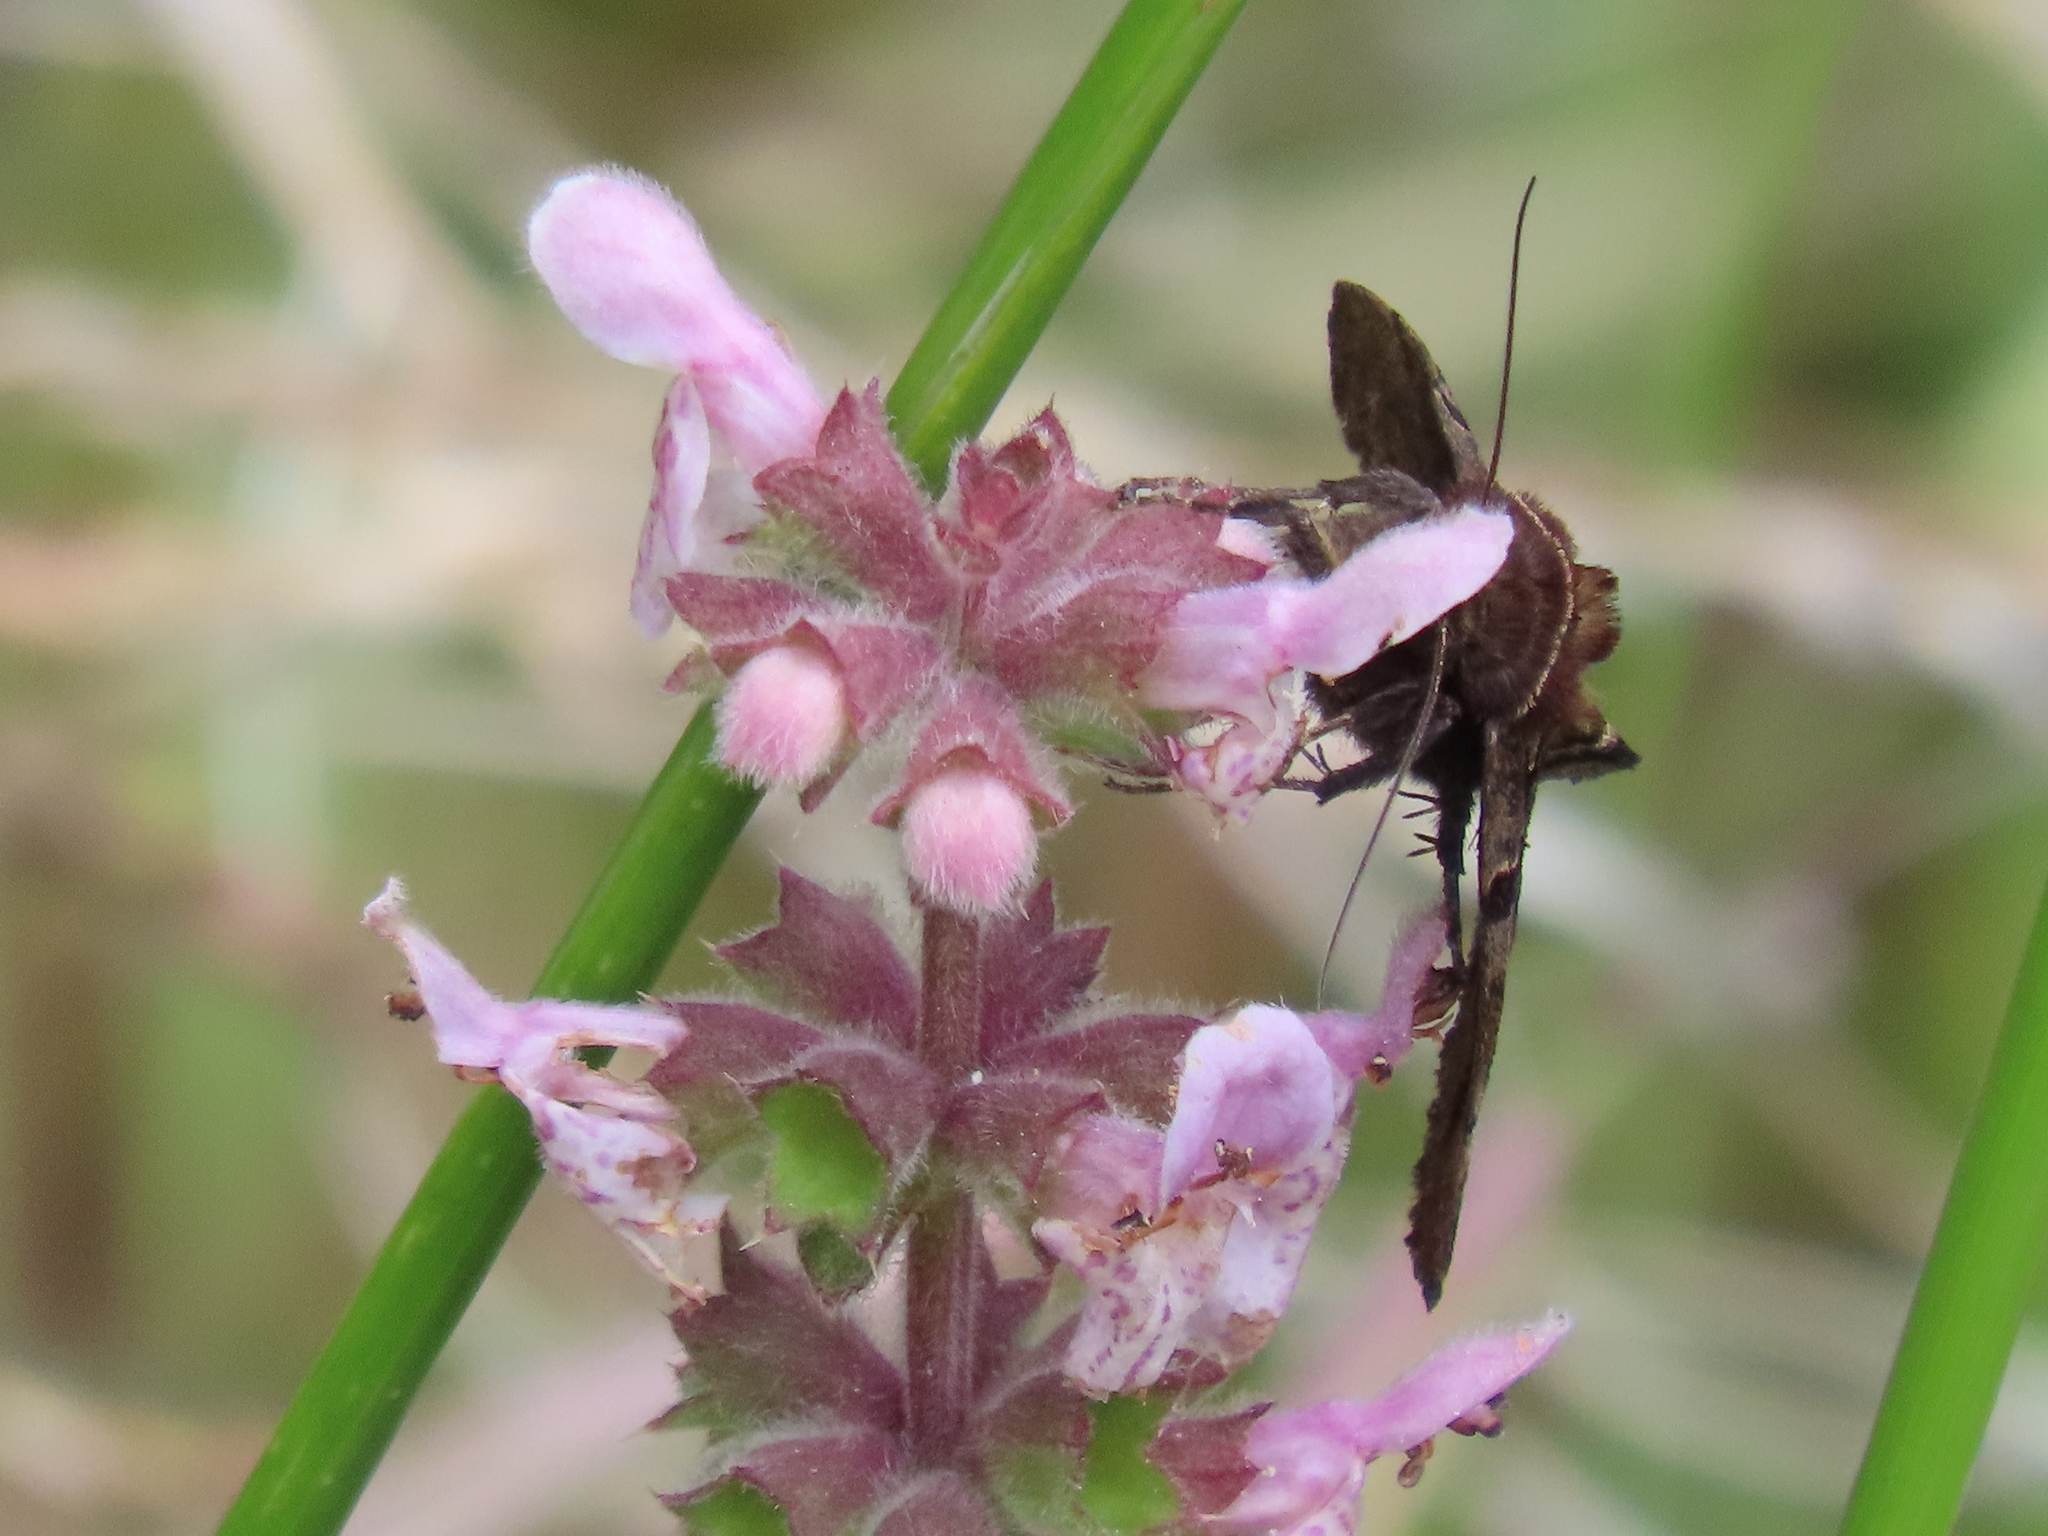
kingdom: Animalia
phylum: Arthropoda
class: Insecta
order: Lepidoptera
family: Erebidae
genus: Euclidia
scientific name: Euclidia ardita
